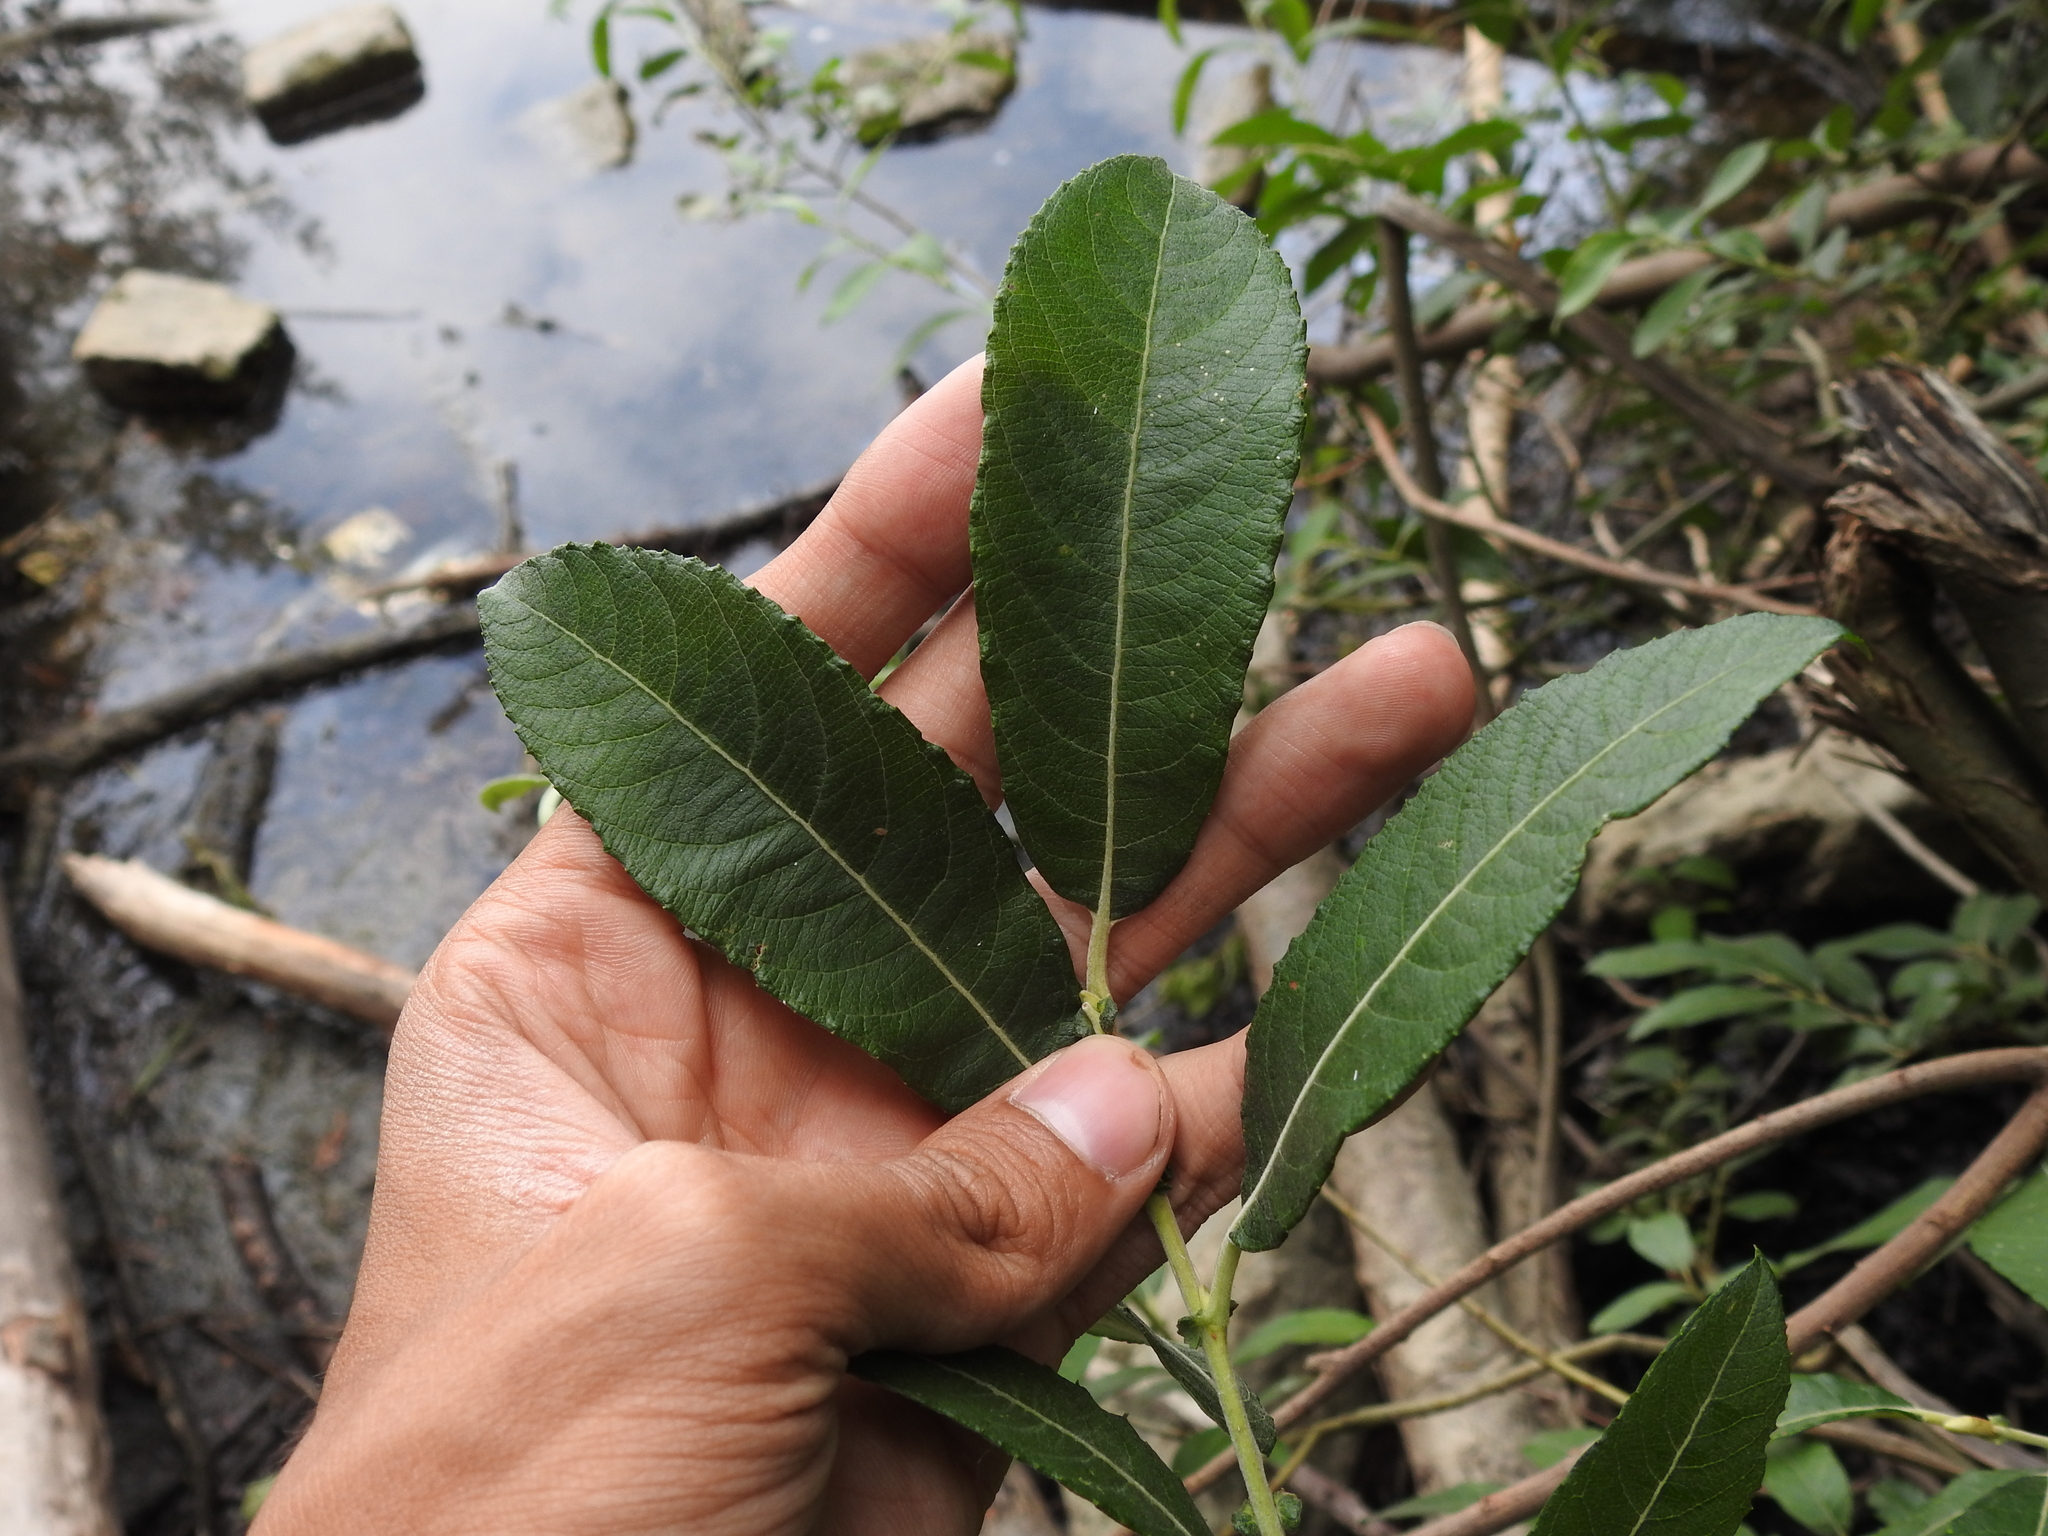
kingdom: Plantae
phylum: Tracheophyta
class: Magnoliopsida
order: Malpighiales
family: Salicaceae
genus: Salix
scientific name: Salix cinerea
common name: Common sallow
